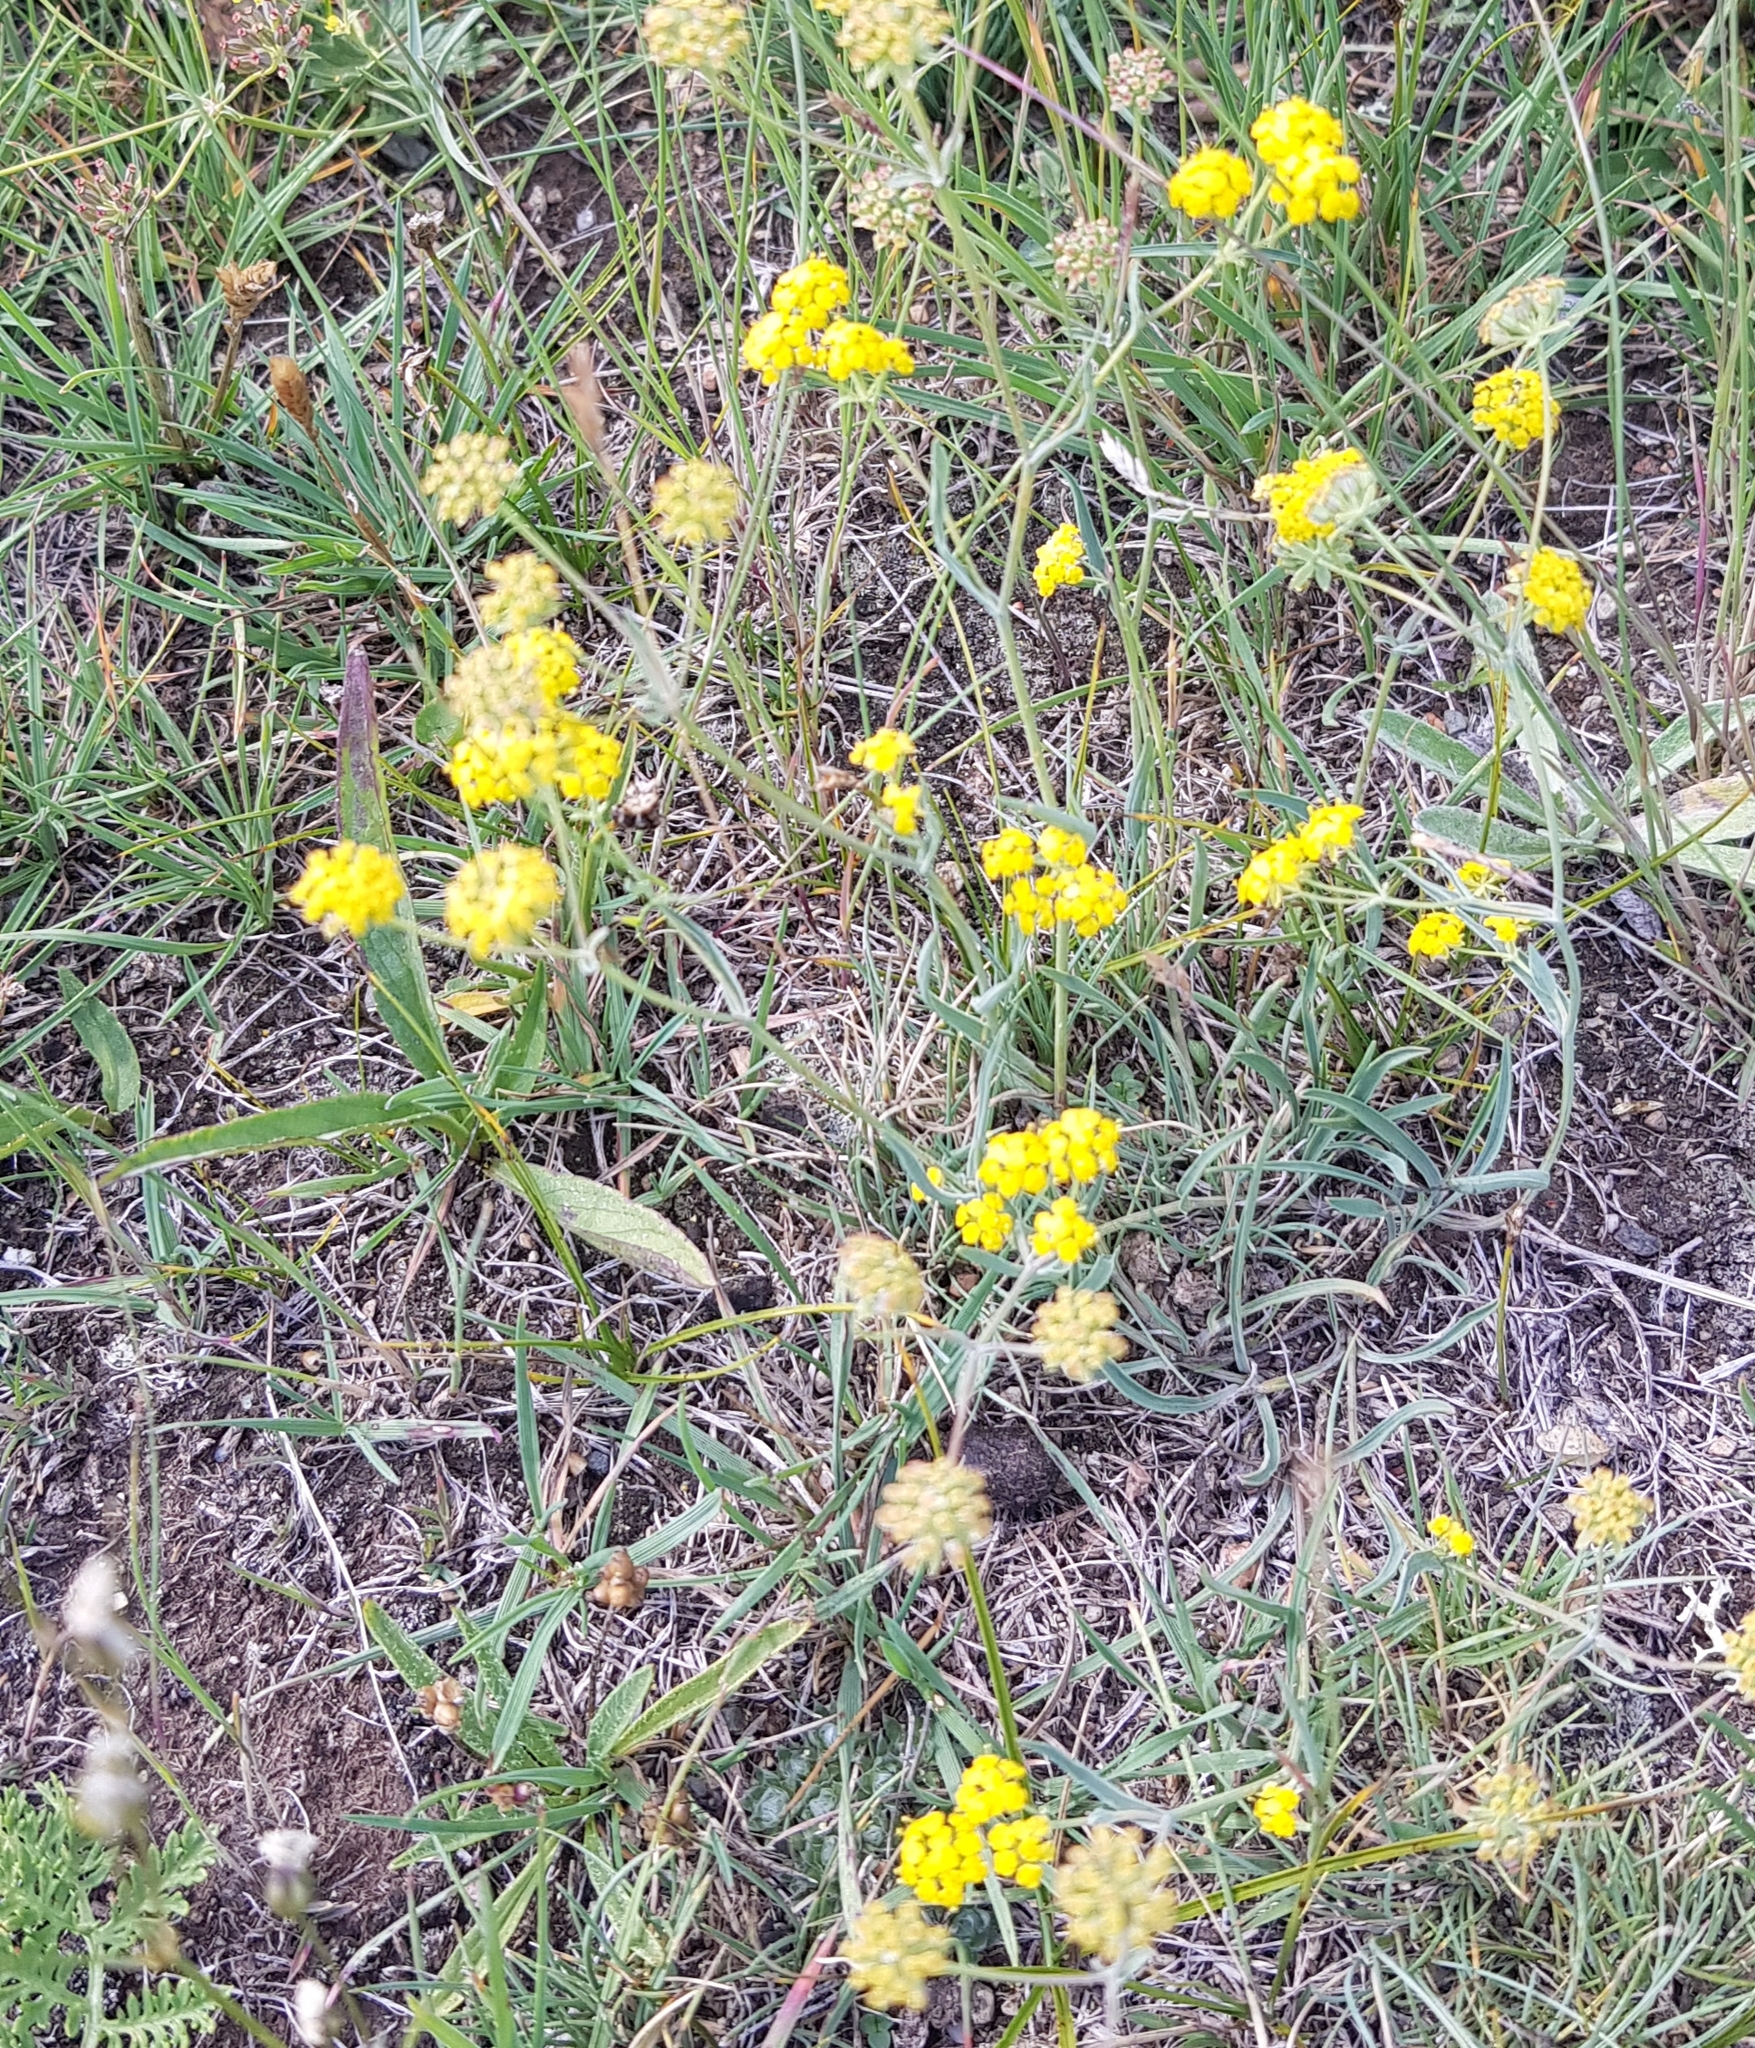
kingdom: Plantae
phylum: Tracheophyta
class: Magnoliopsida
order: Apiales
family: Apiaceae
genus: Bupleurum
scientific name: Bupleurum bicaule
